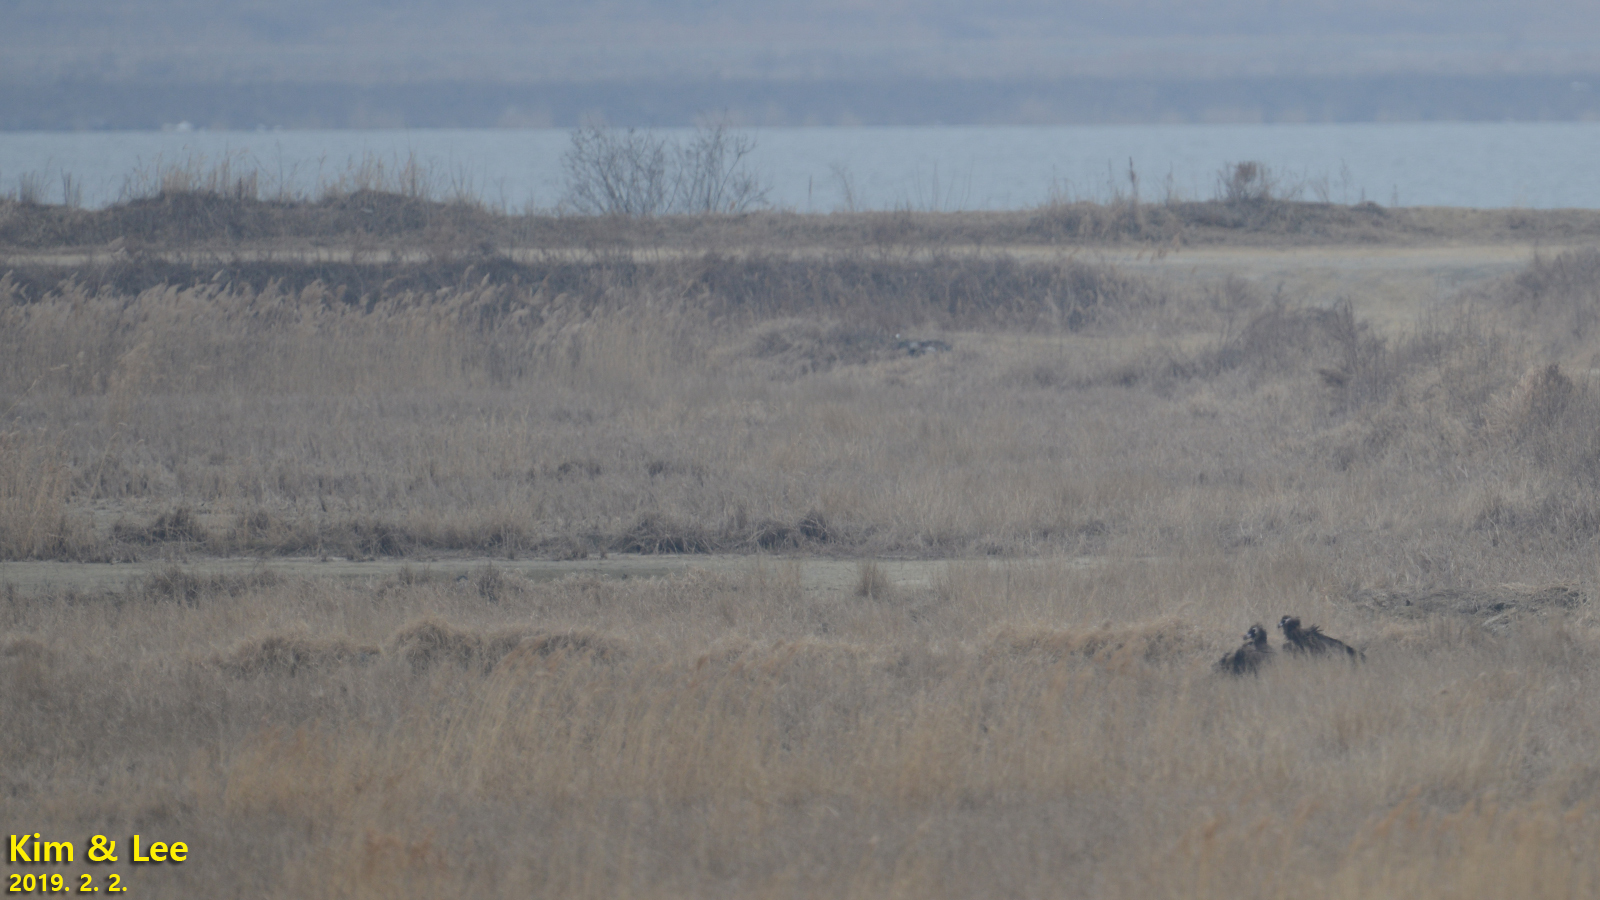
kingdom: Animalia
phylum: Chordata
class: Aves
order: Accipitriformes
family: Accipitridae
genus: Aegypius
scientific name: Aegypius monachus
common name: Cinereous vulture
